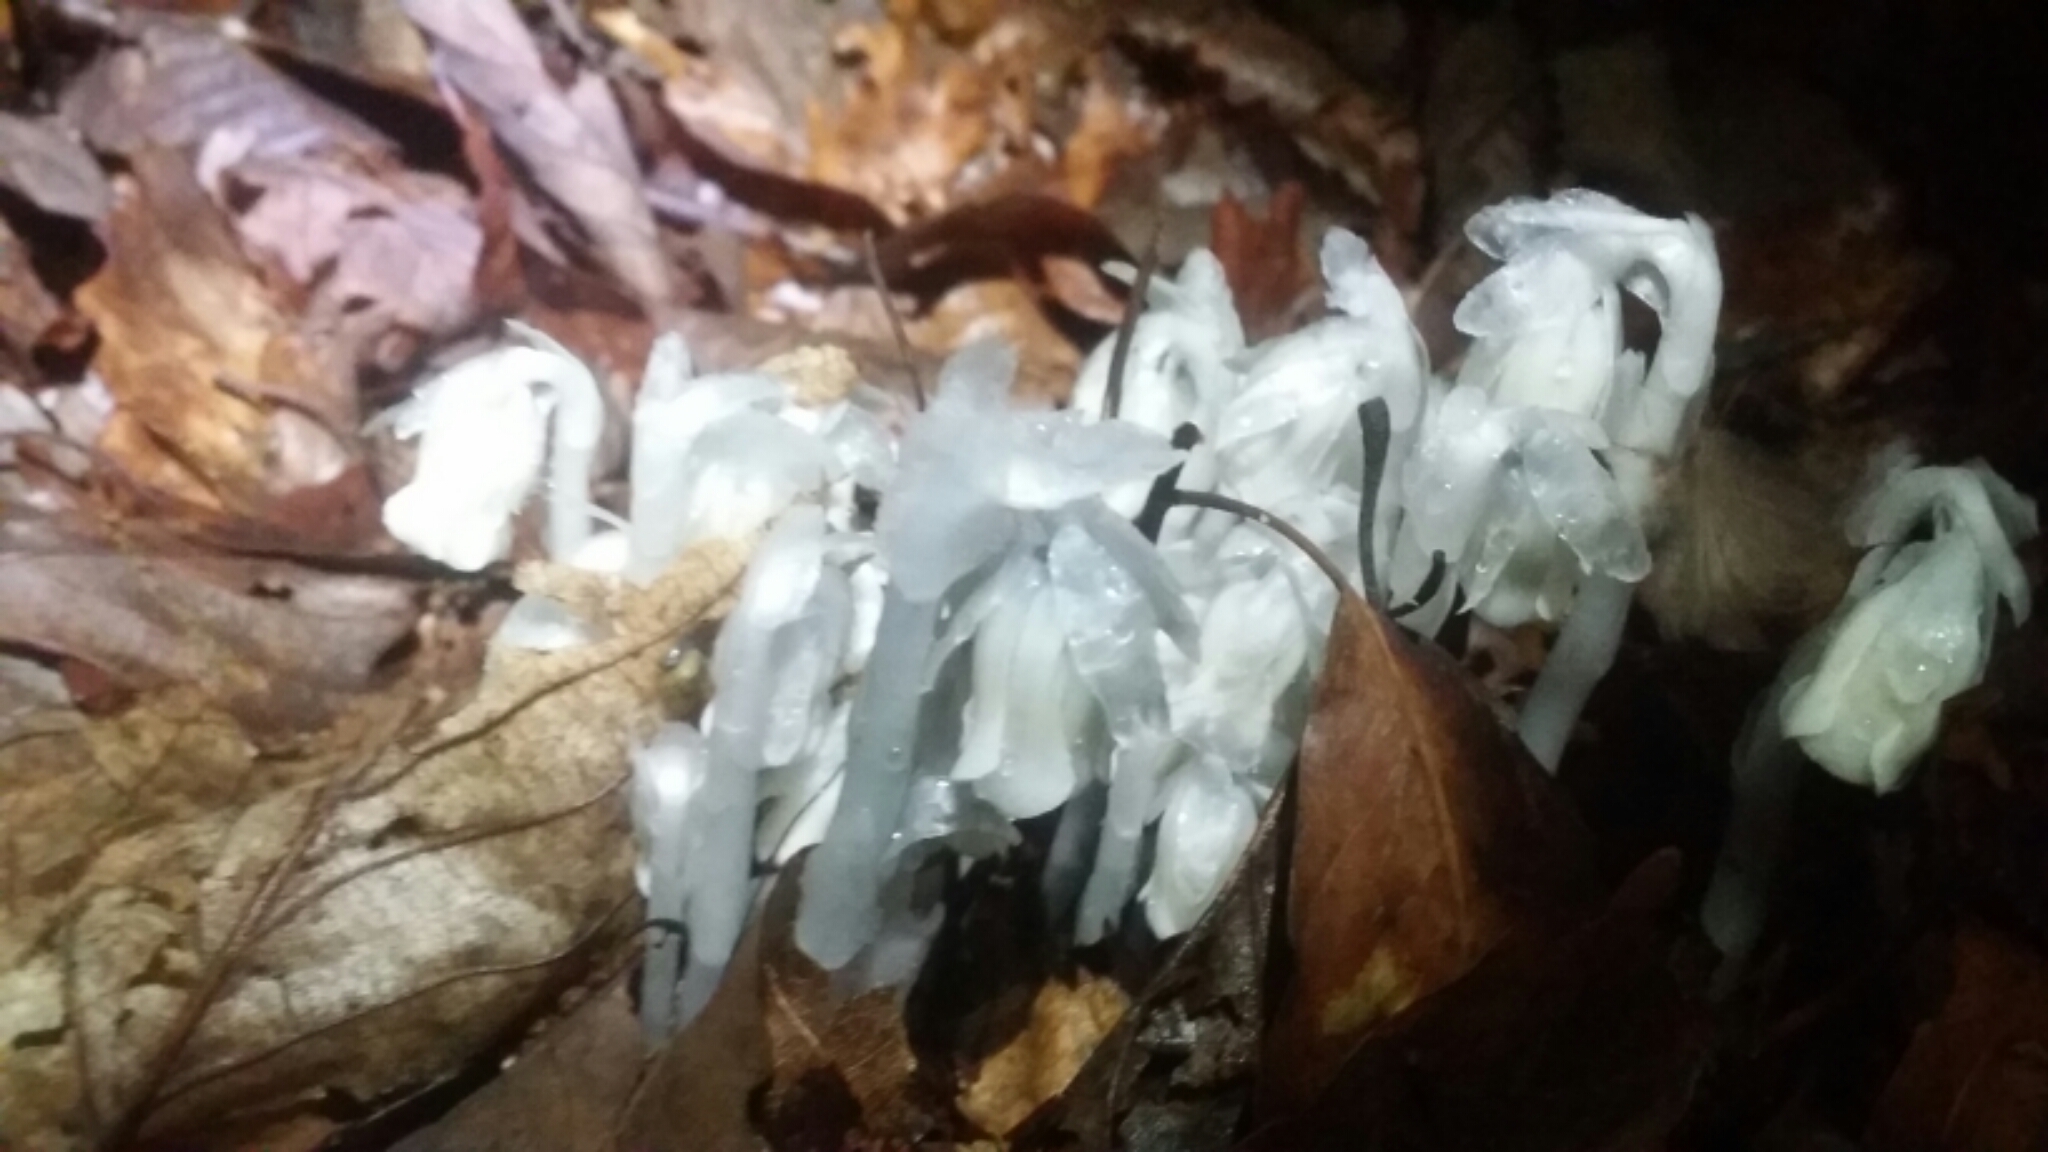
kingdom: Plantae
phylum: Tracheophyta
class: Magnoliopsida
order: Ericales
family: Ericaceae
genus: Monotropa
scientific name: Monotropa uniflora
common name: Convulsion root
